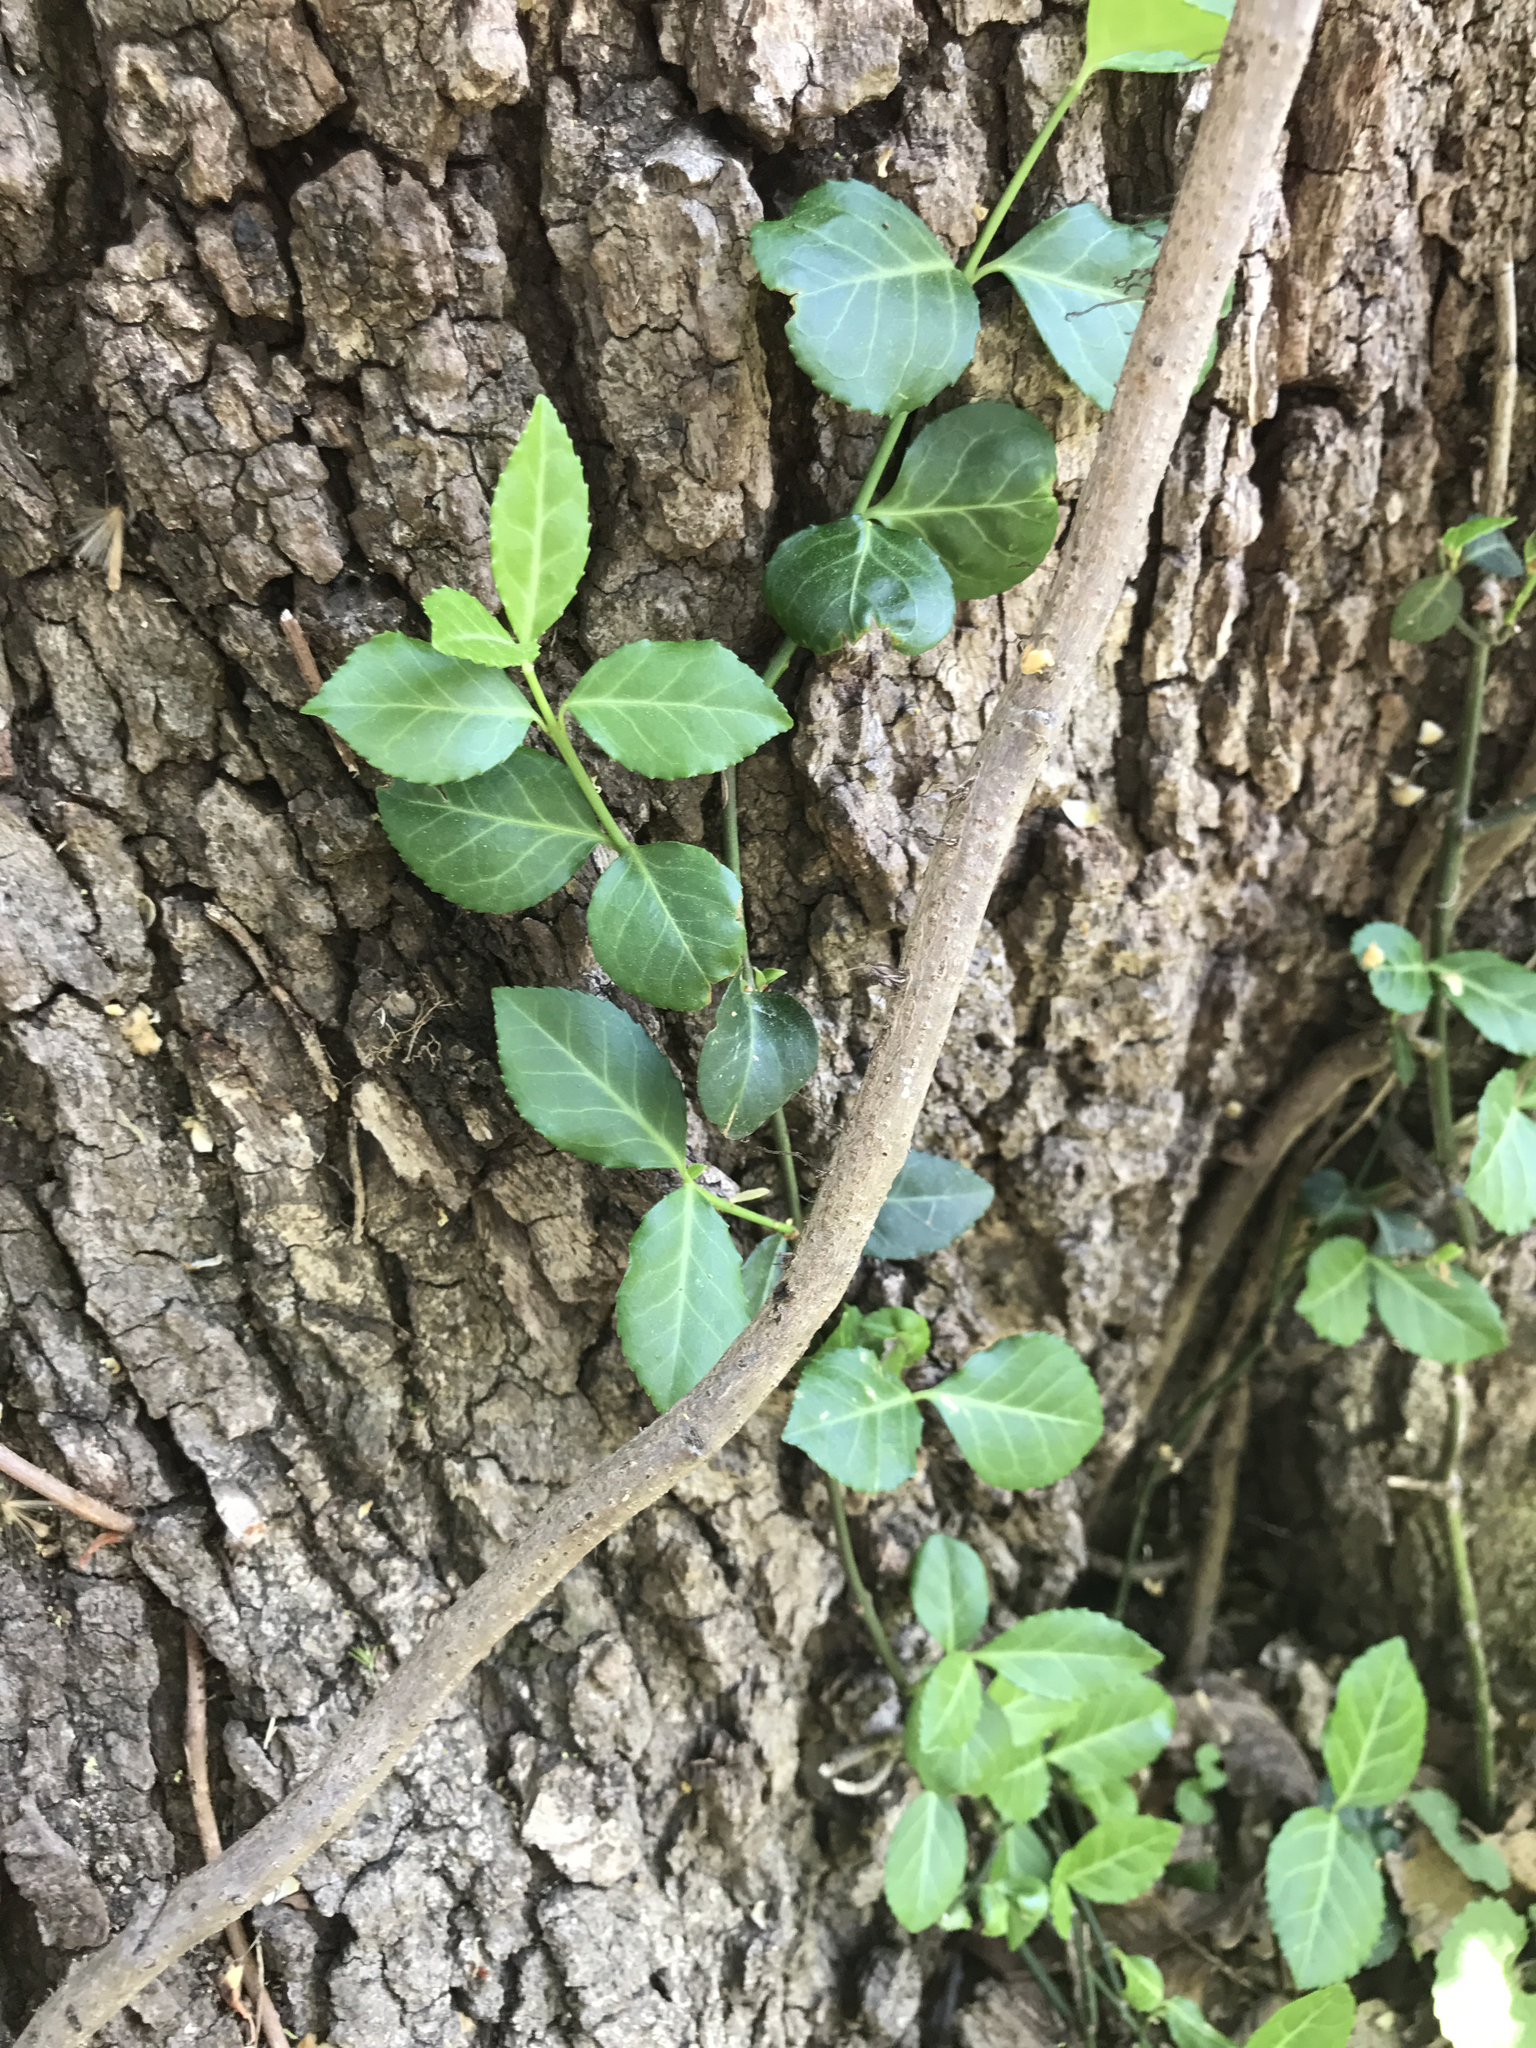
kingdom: Plantae
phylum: Tracheophyta
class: Magnoliopsida
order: Celastrales
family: Celastraceae
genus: Euonymus
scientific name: Euonymus fortunei
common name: Climbing euonymus
